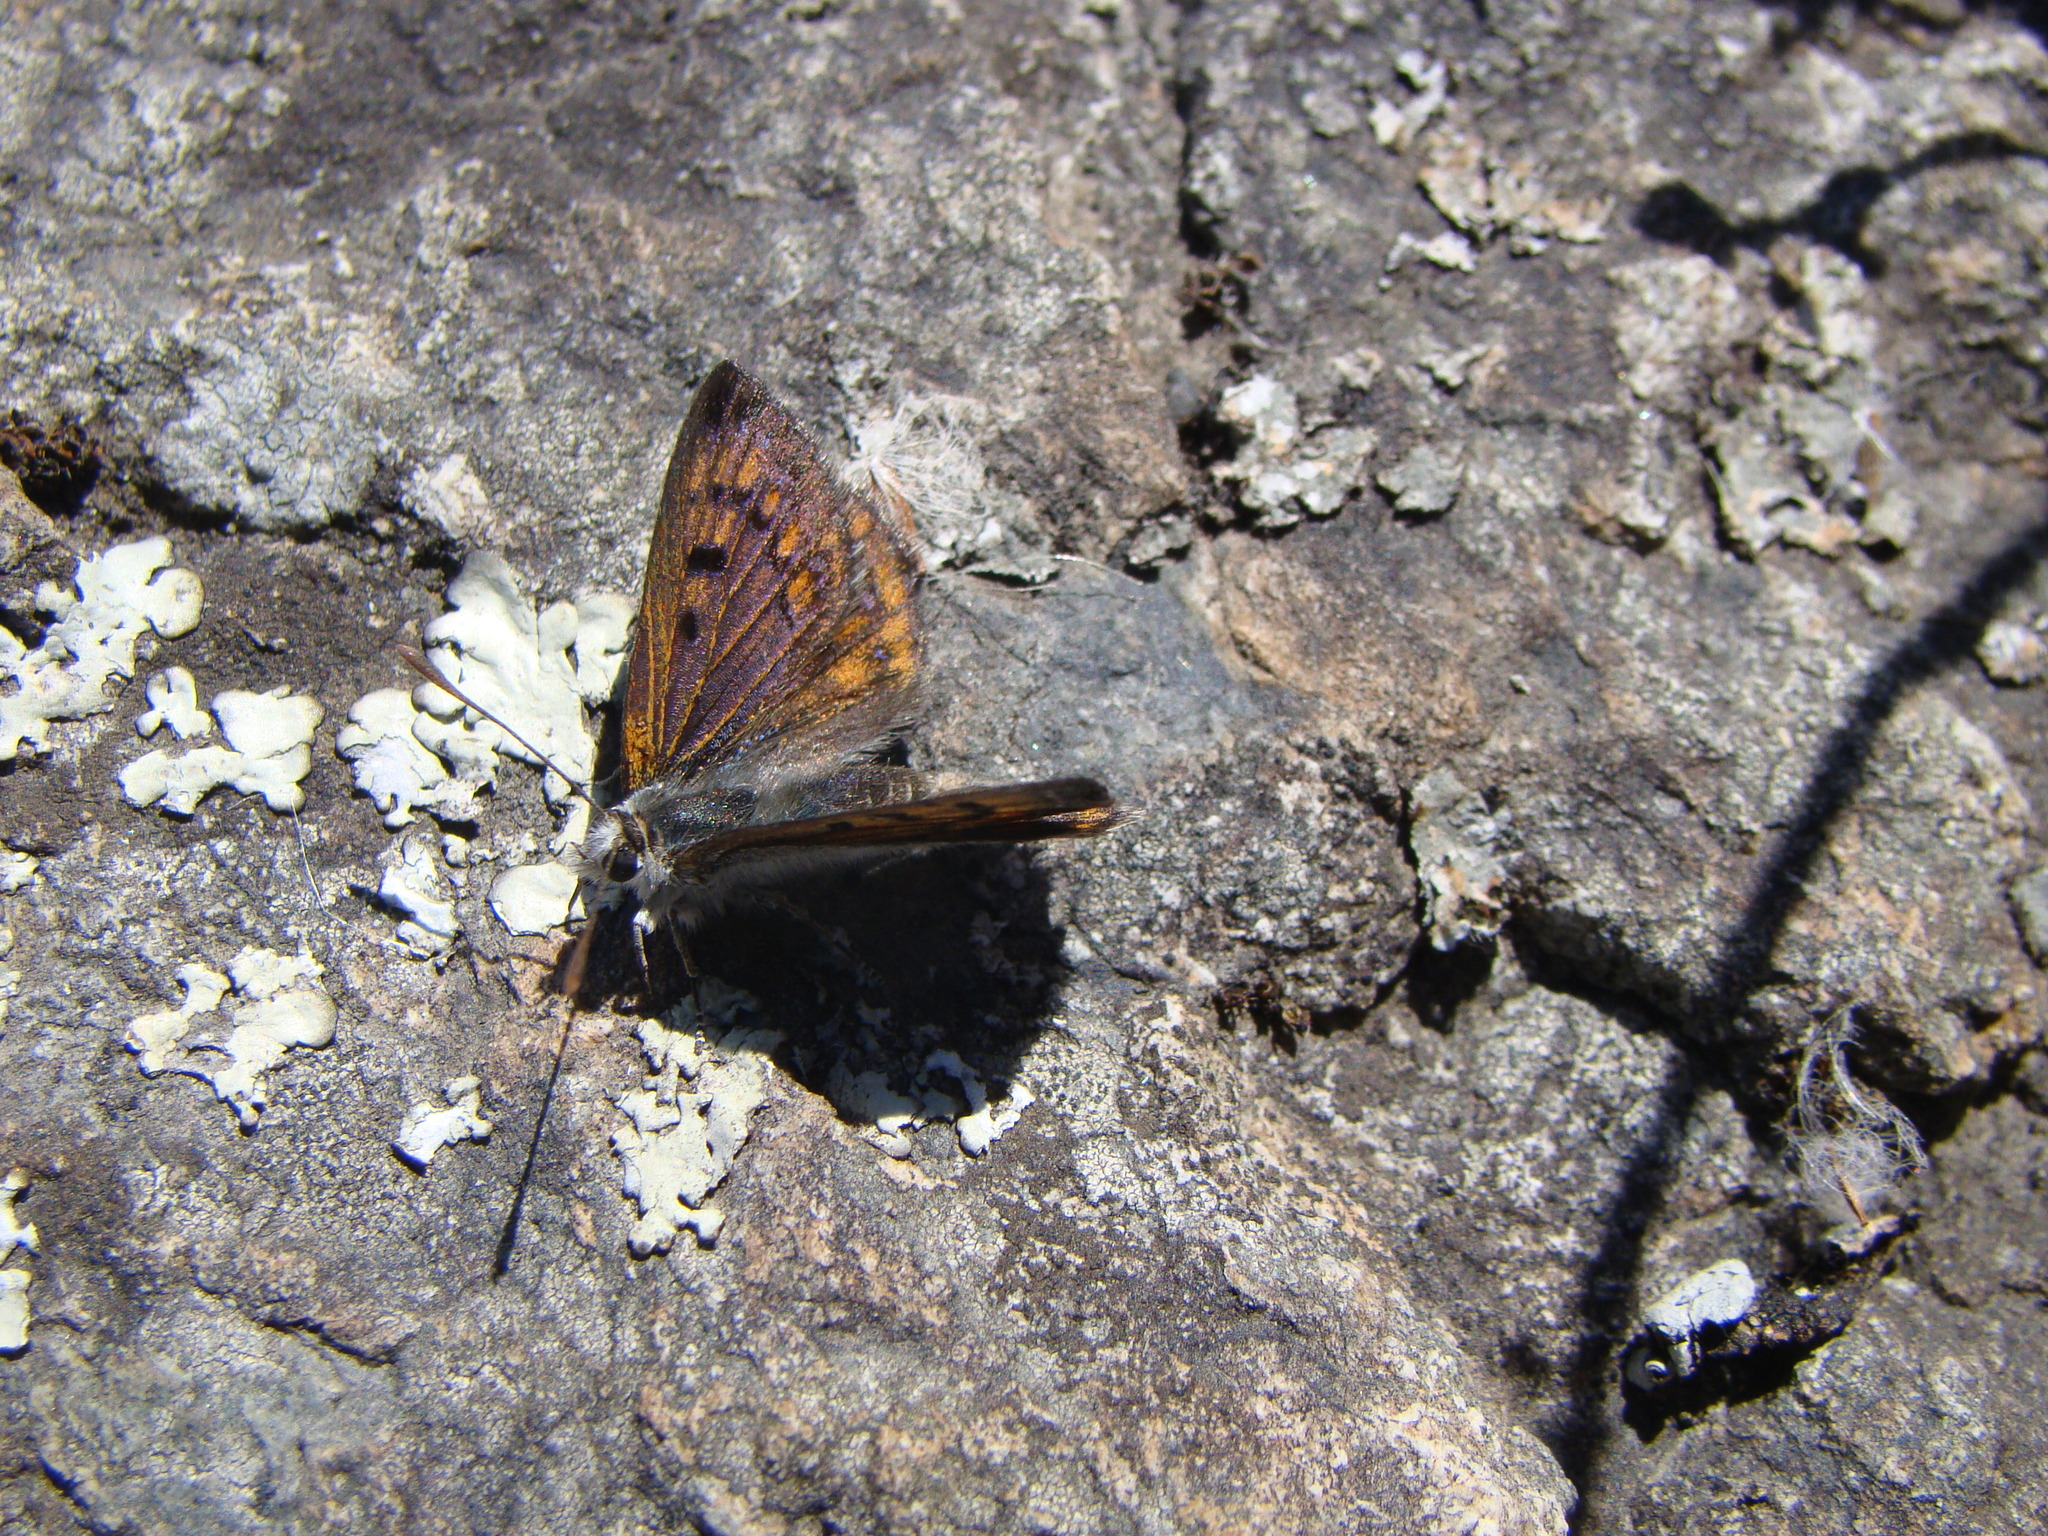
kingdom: Animalia
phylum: Arthropoda
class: Insecta
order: Lepidoptera
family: Lycaenidae
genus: Lycaena
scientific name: Lycaena boldenarum
